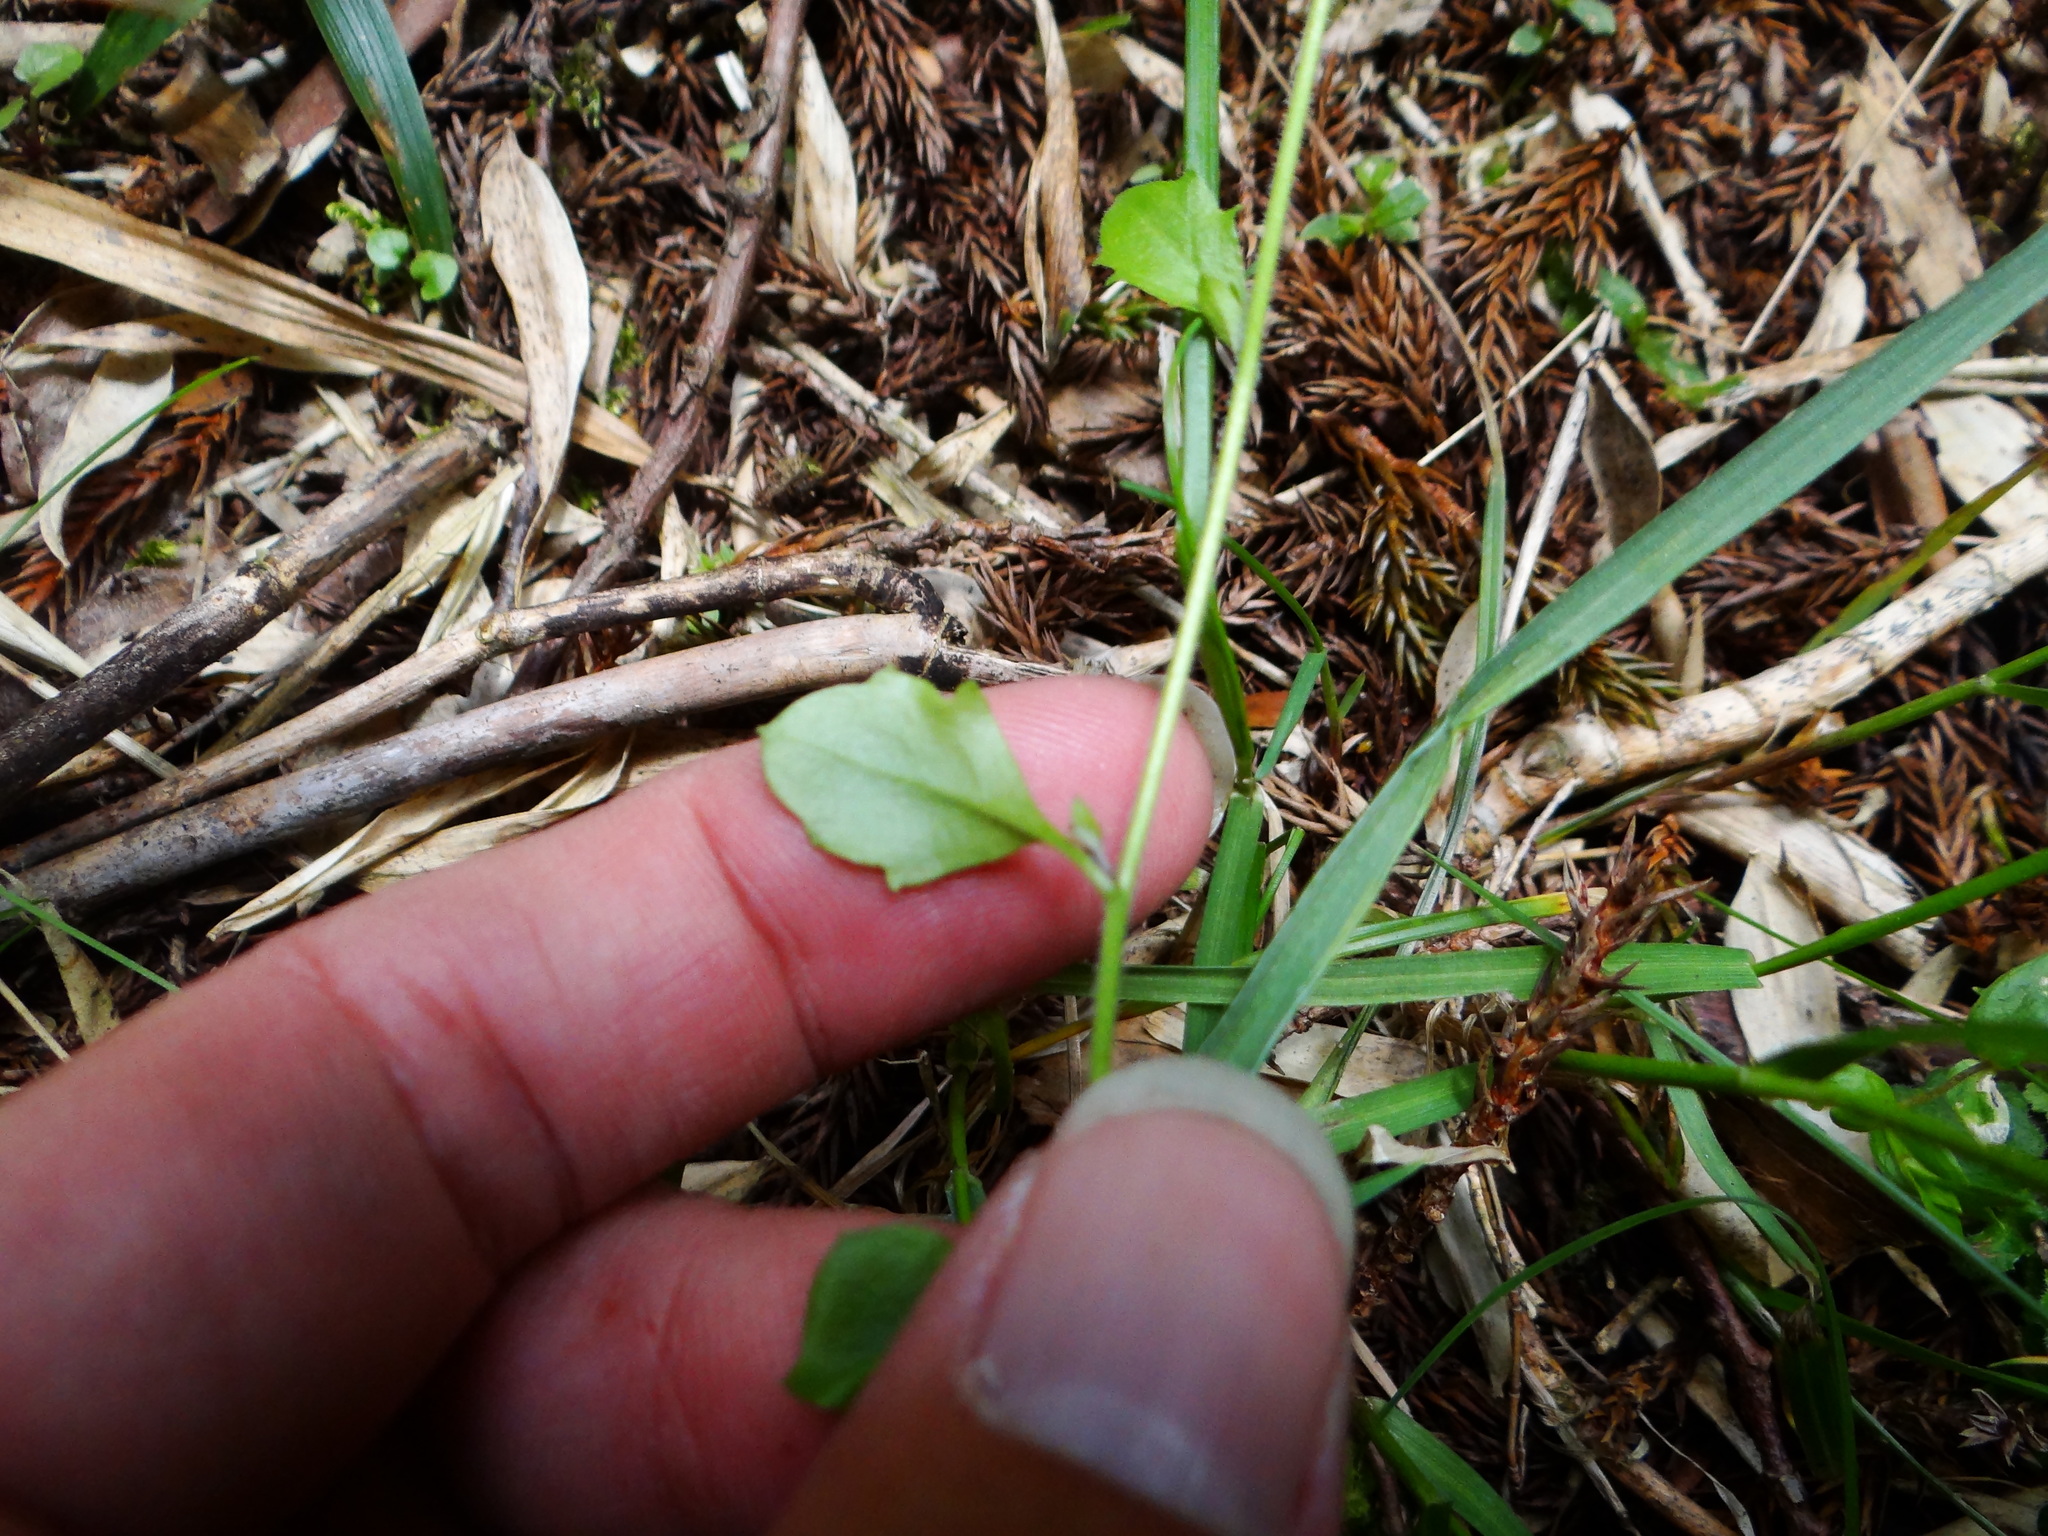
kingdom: Plantae
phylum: Tracheophyta
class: Magnoliopsida
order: Brassicales
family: Brassicaceae
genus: Arabidopsis
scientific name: Arabidopsis halleri
